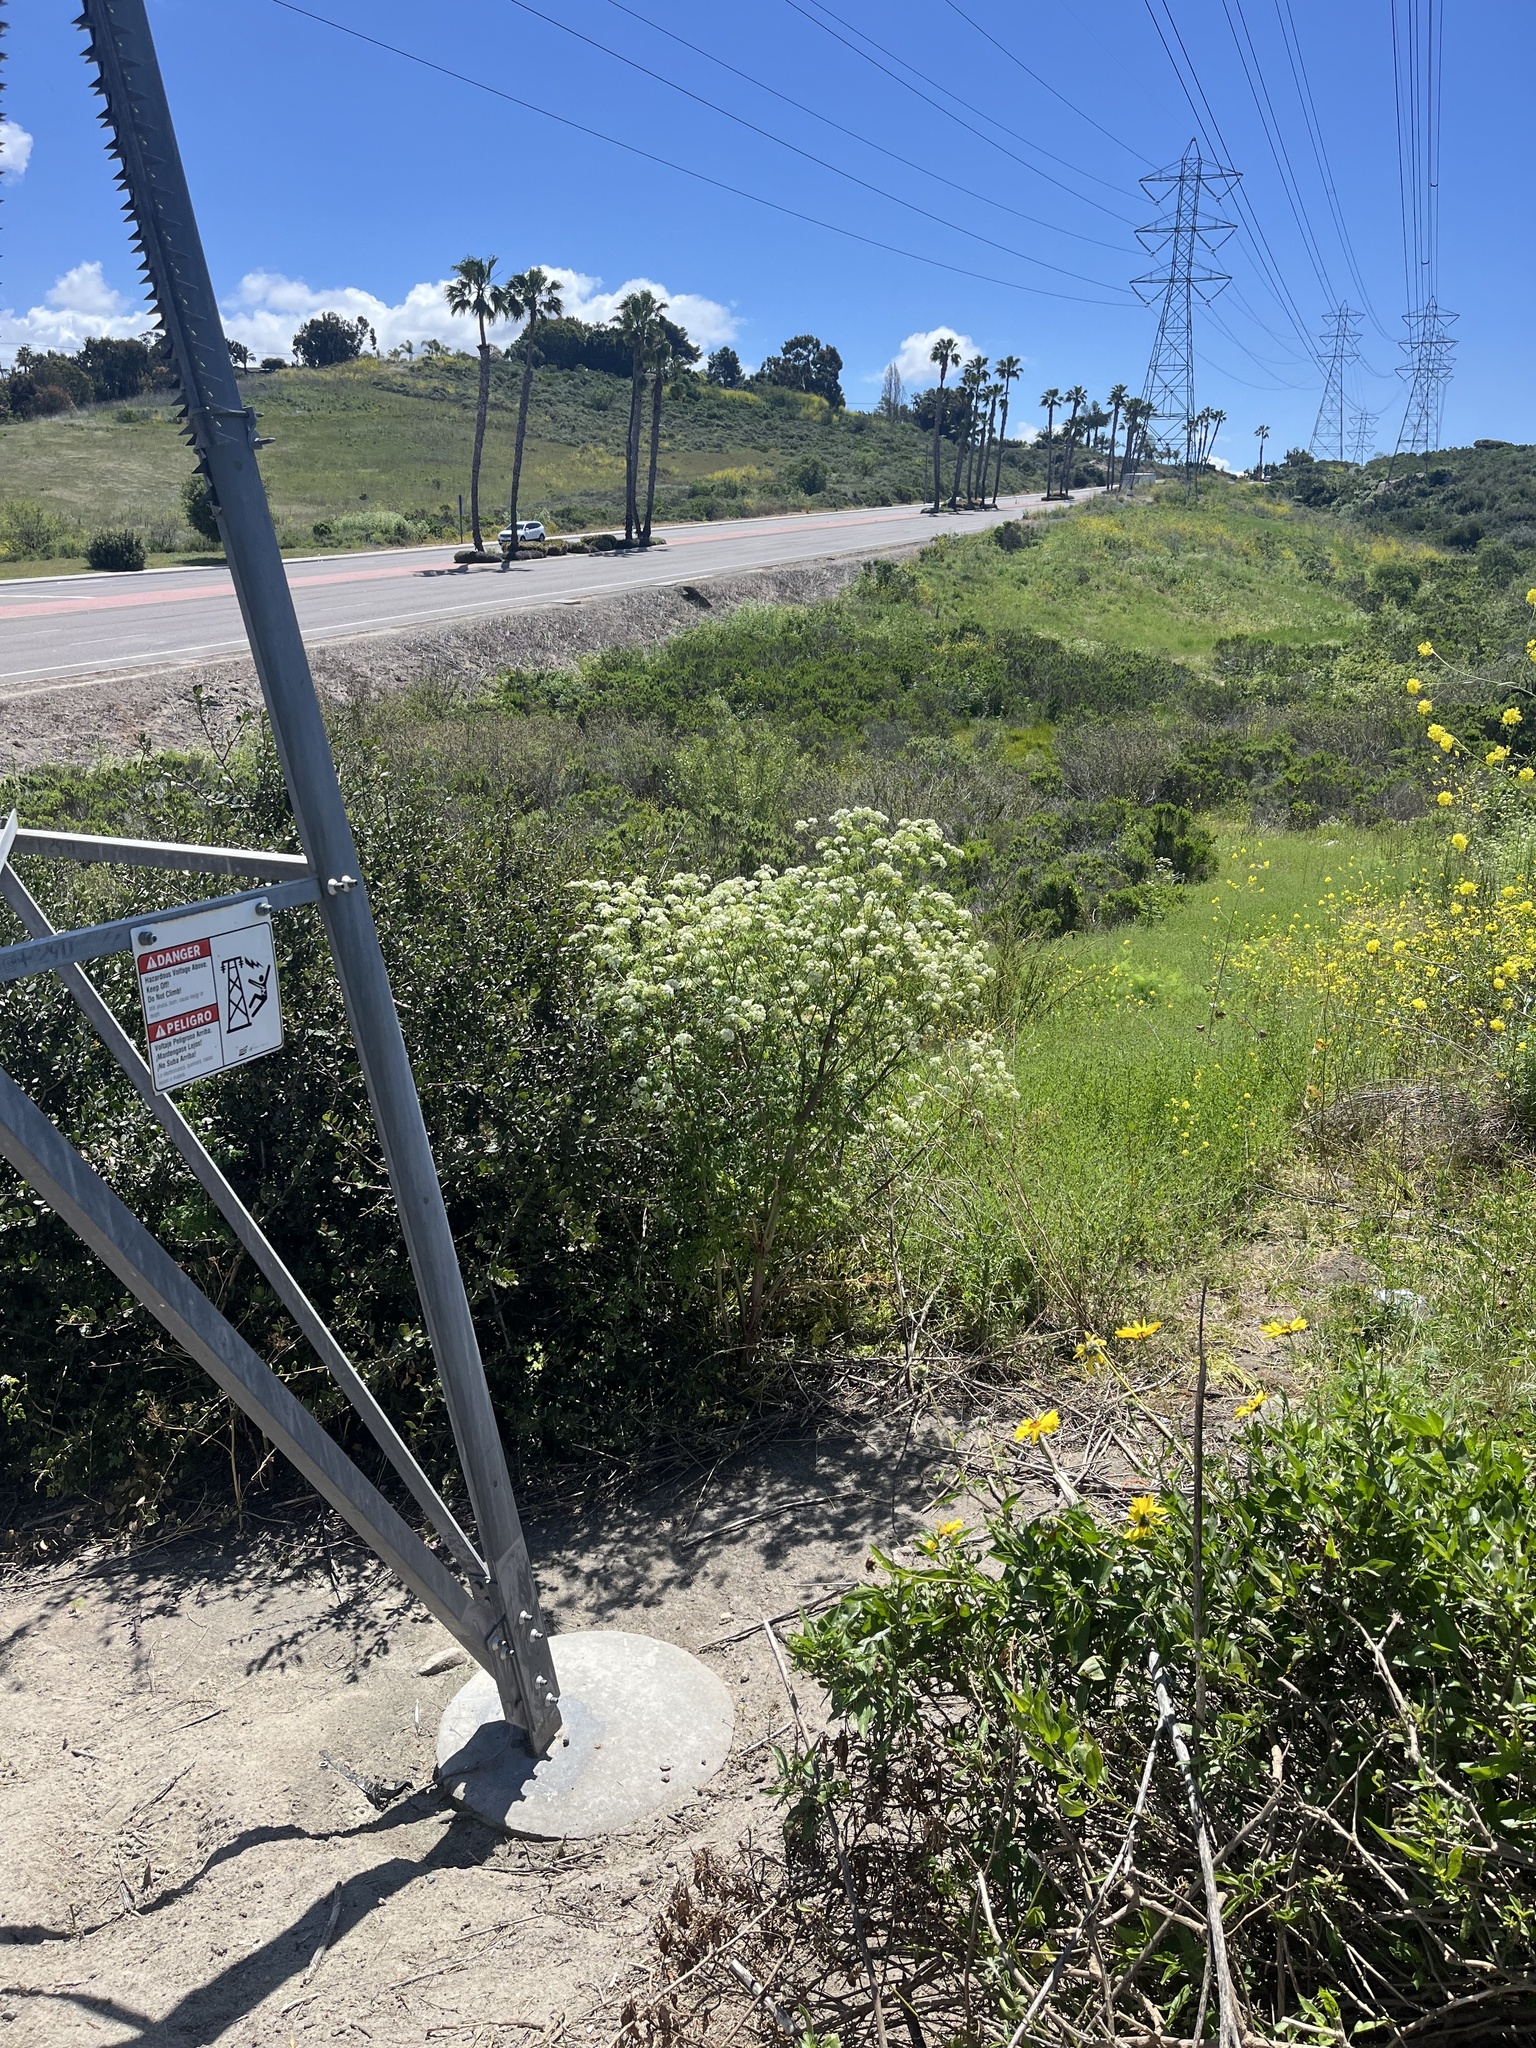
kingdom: Plantae
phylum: Tracheophyta
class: Magnoliopsida
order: Apiales
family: Apiaceae
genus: Conium
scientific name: Conium maculatum
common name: Hemlock
